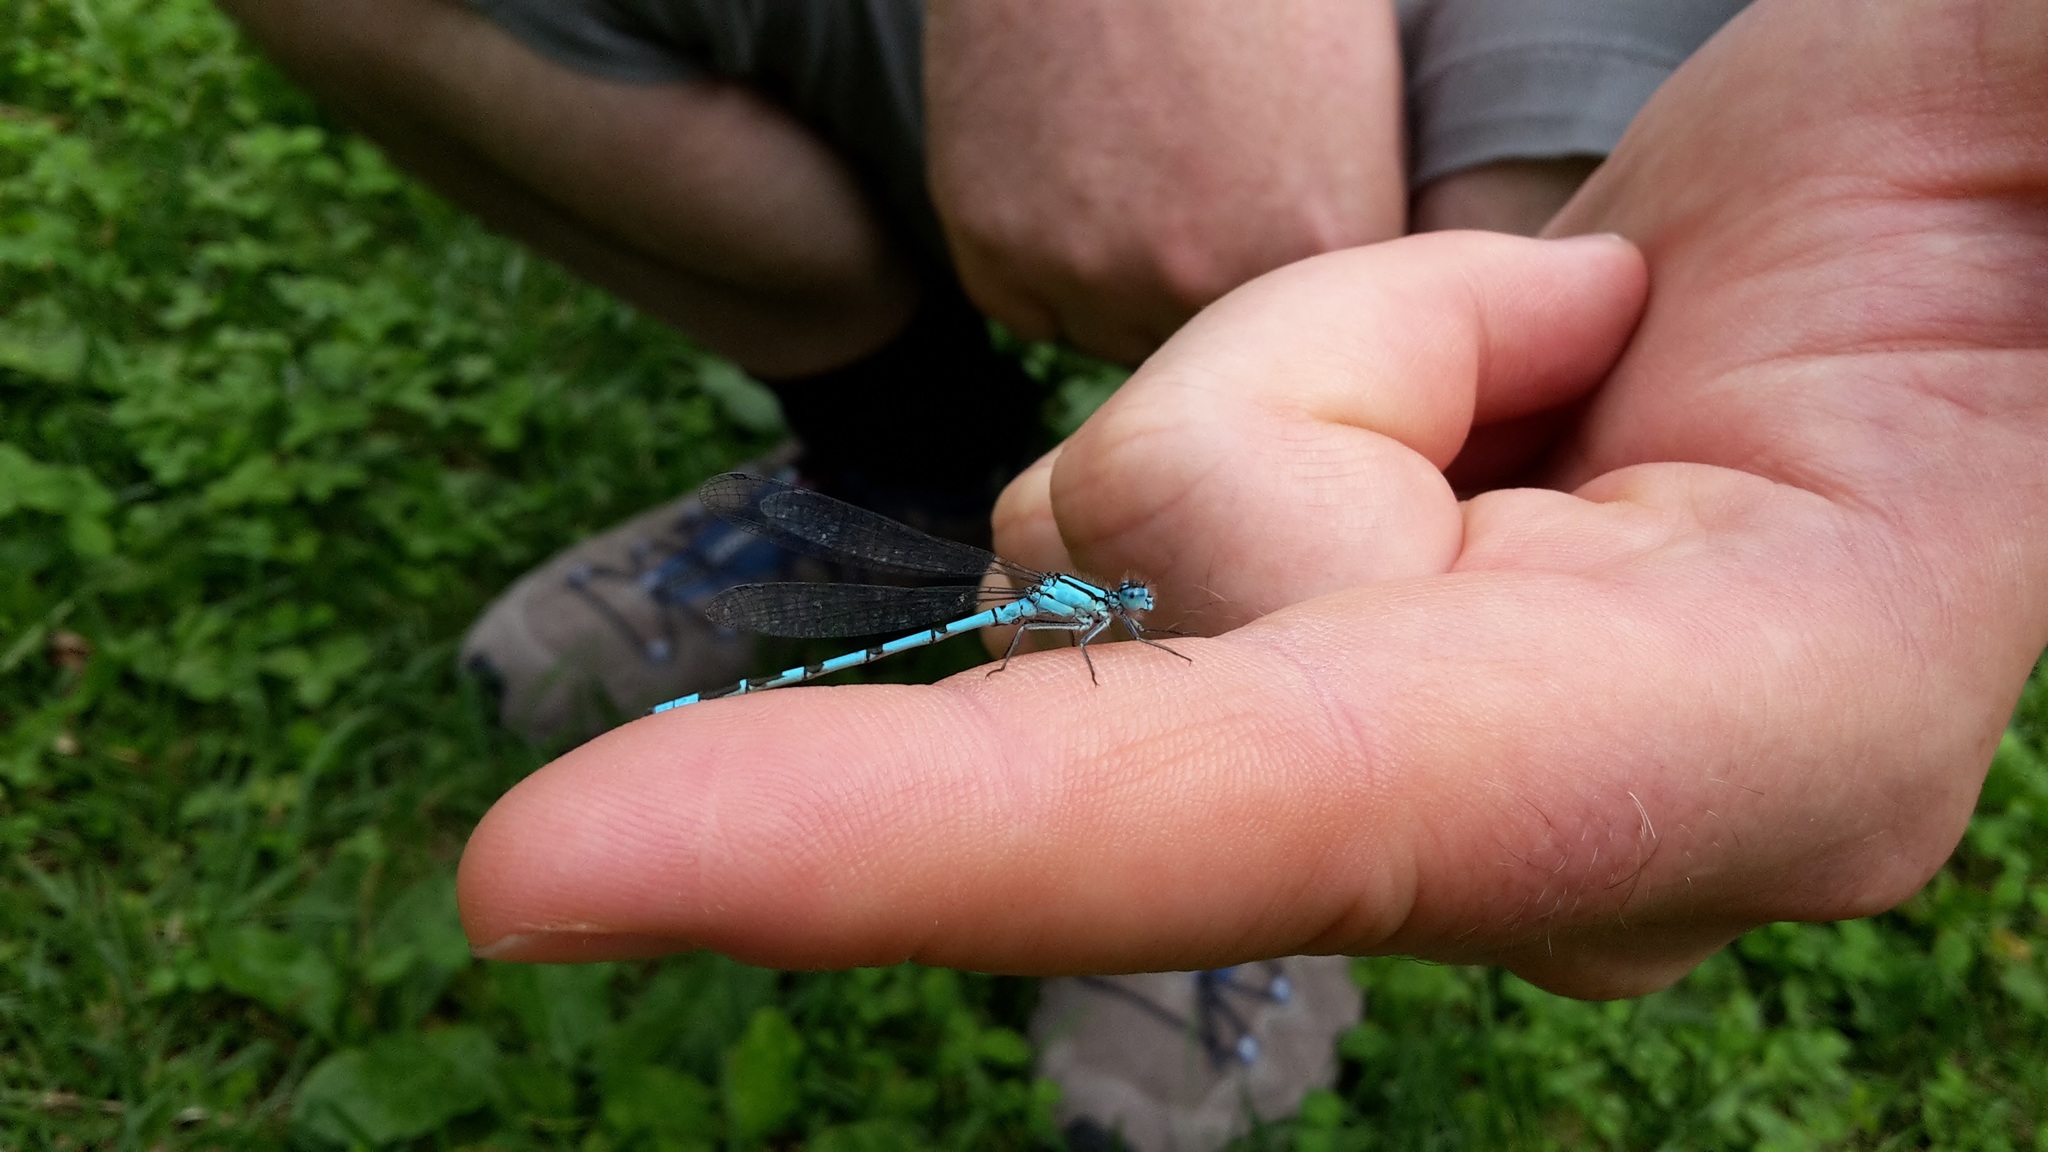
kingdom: Animalia
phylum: Arthropoda
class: Insecta
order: Odonata
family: Coenagrionidae
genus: Enallagma
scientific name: Enallagma cyathigerum
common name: Common blue damselfly
